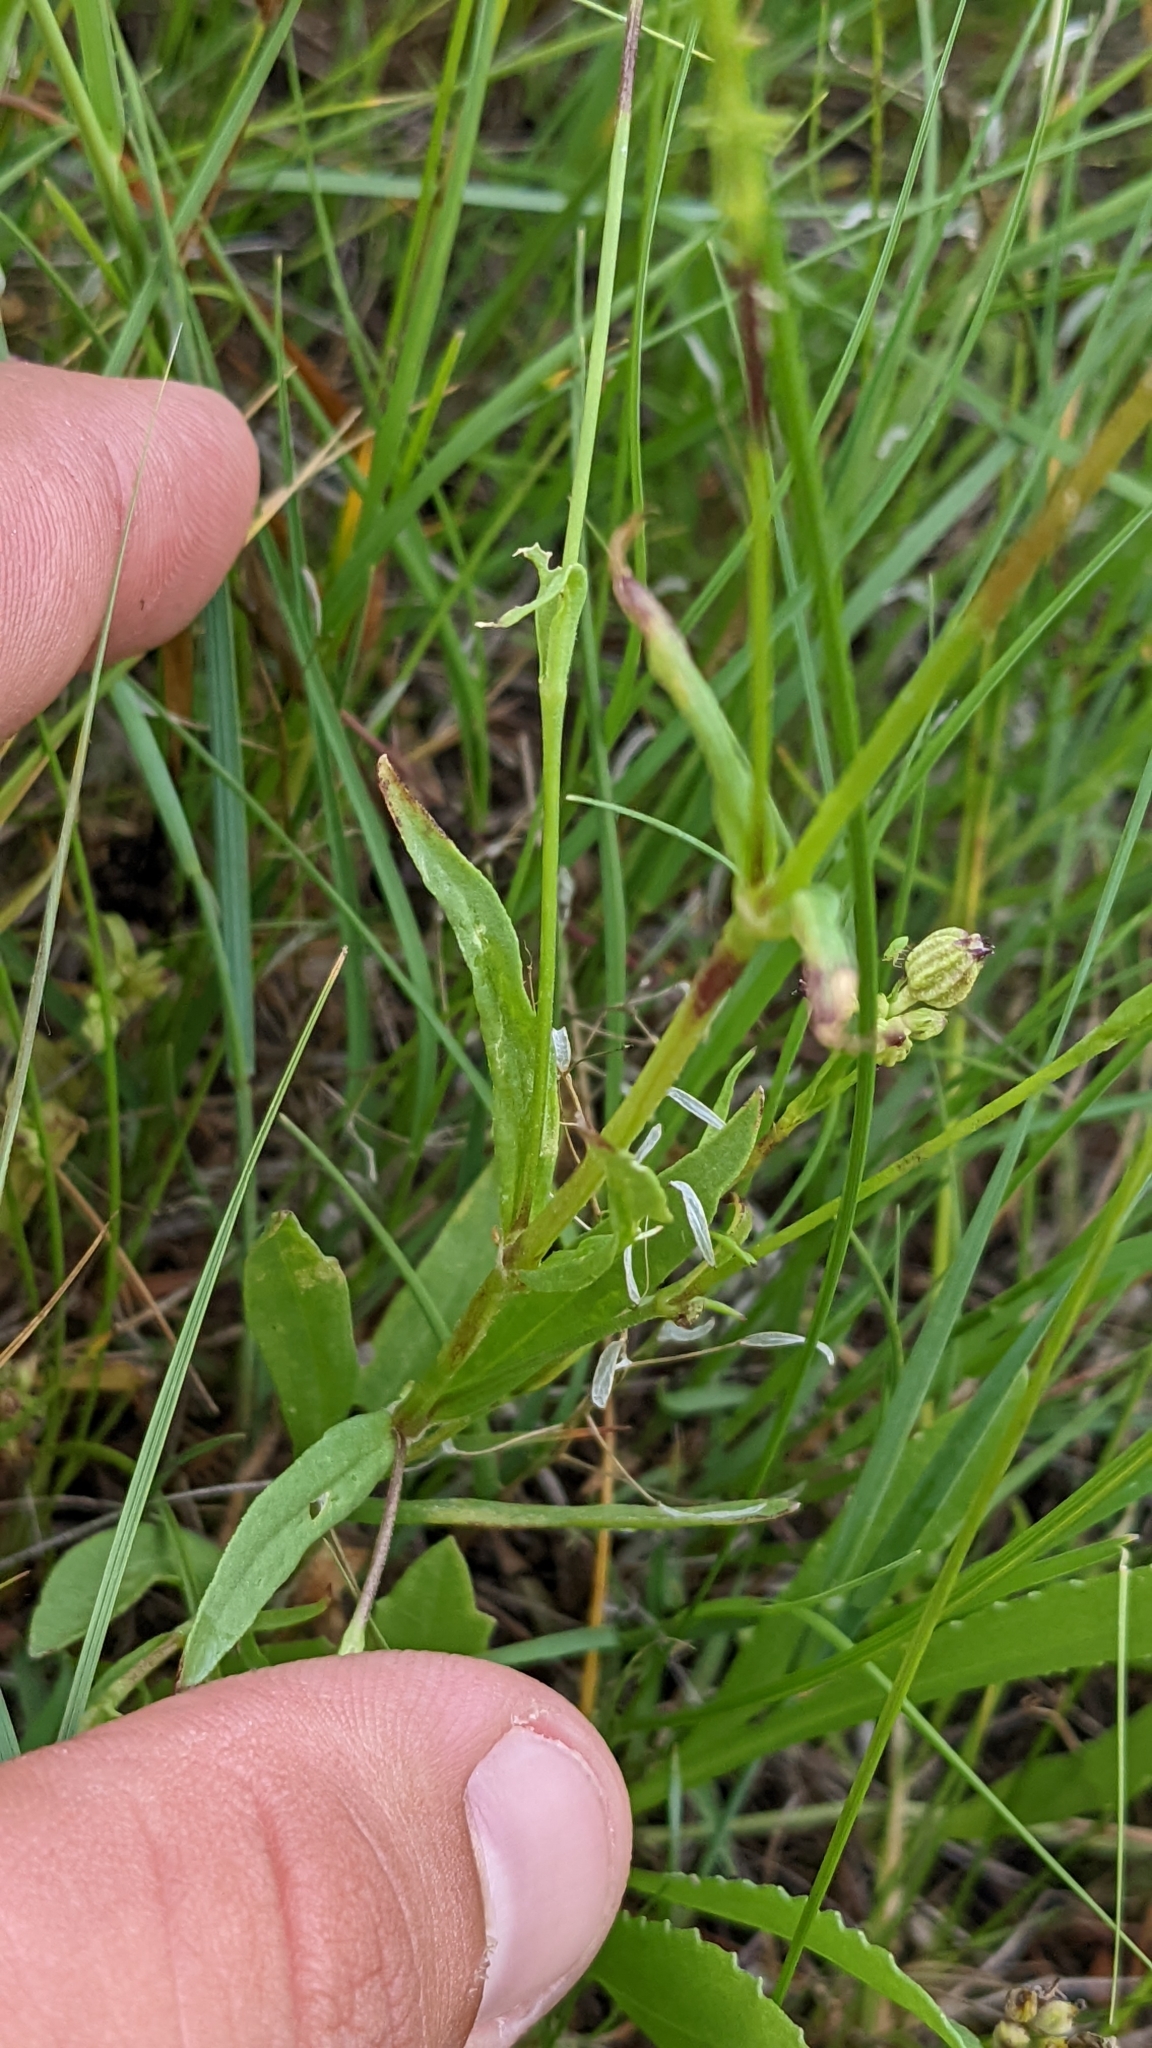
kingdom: Plantae
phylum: Tracheophyta
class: Magnoliopsida
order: Caryophyllales
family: Caryophyllaceae
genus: Silene
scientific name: Silene antirrhina
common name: Sleepy catchfly
